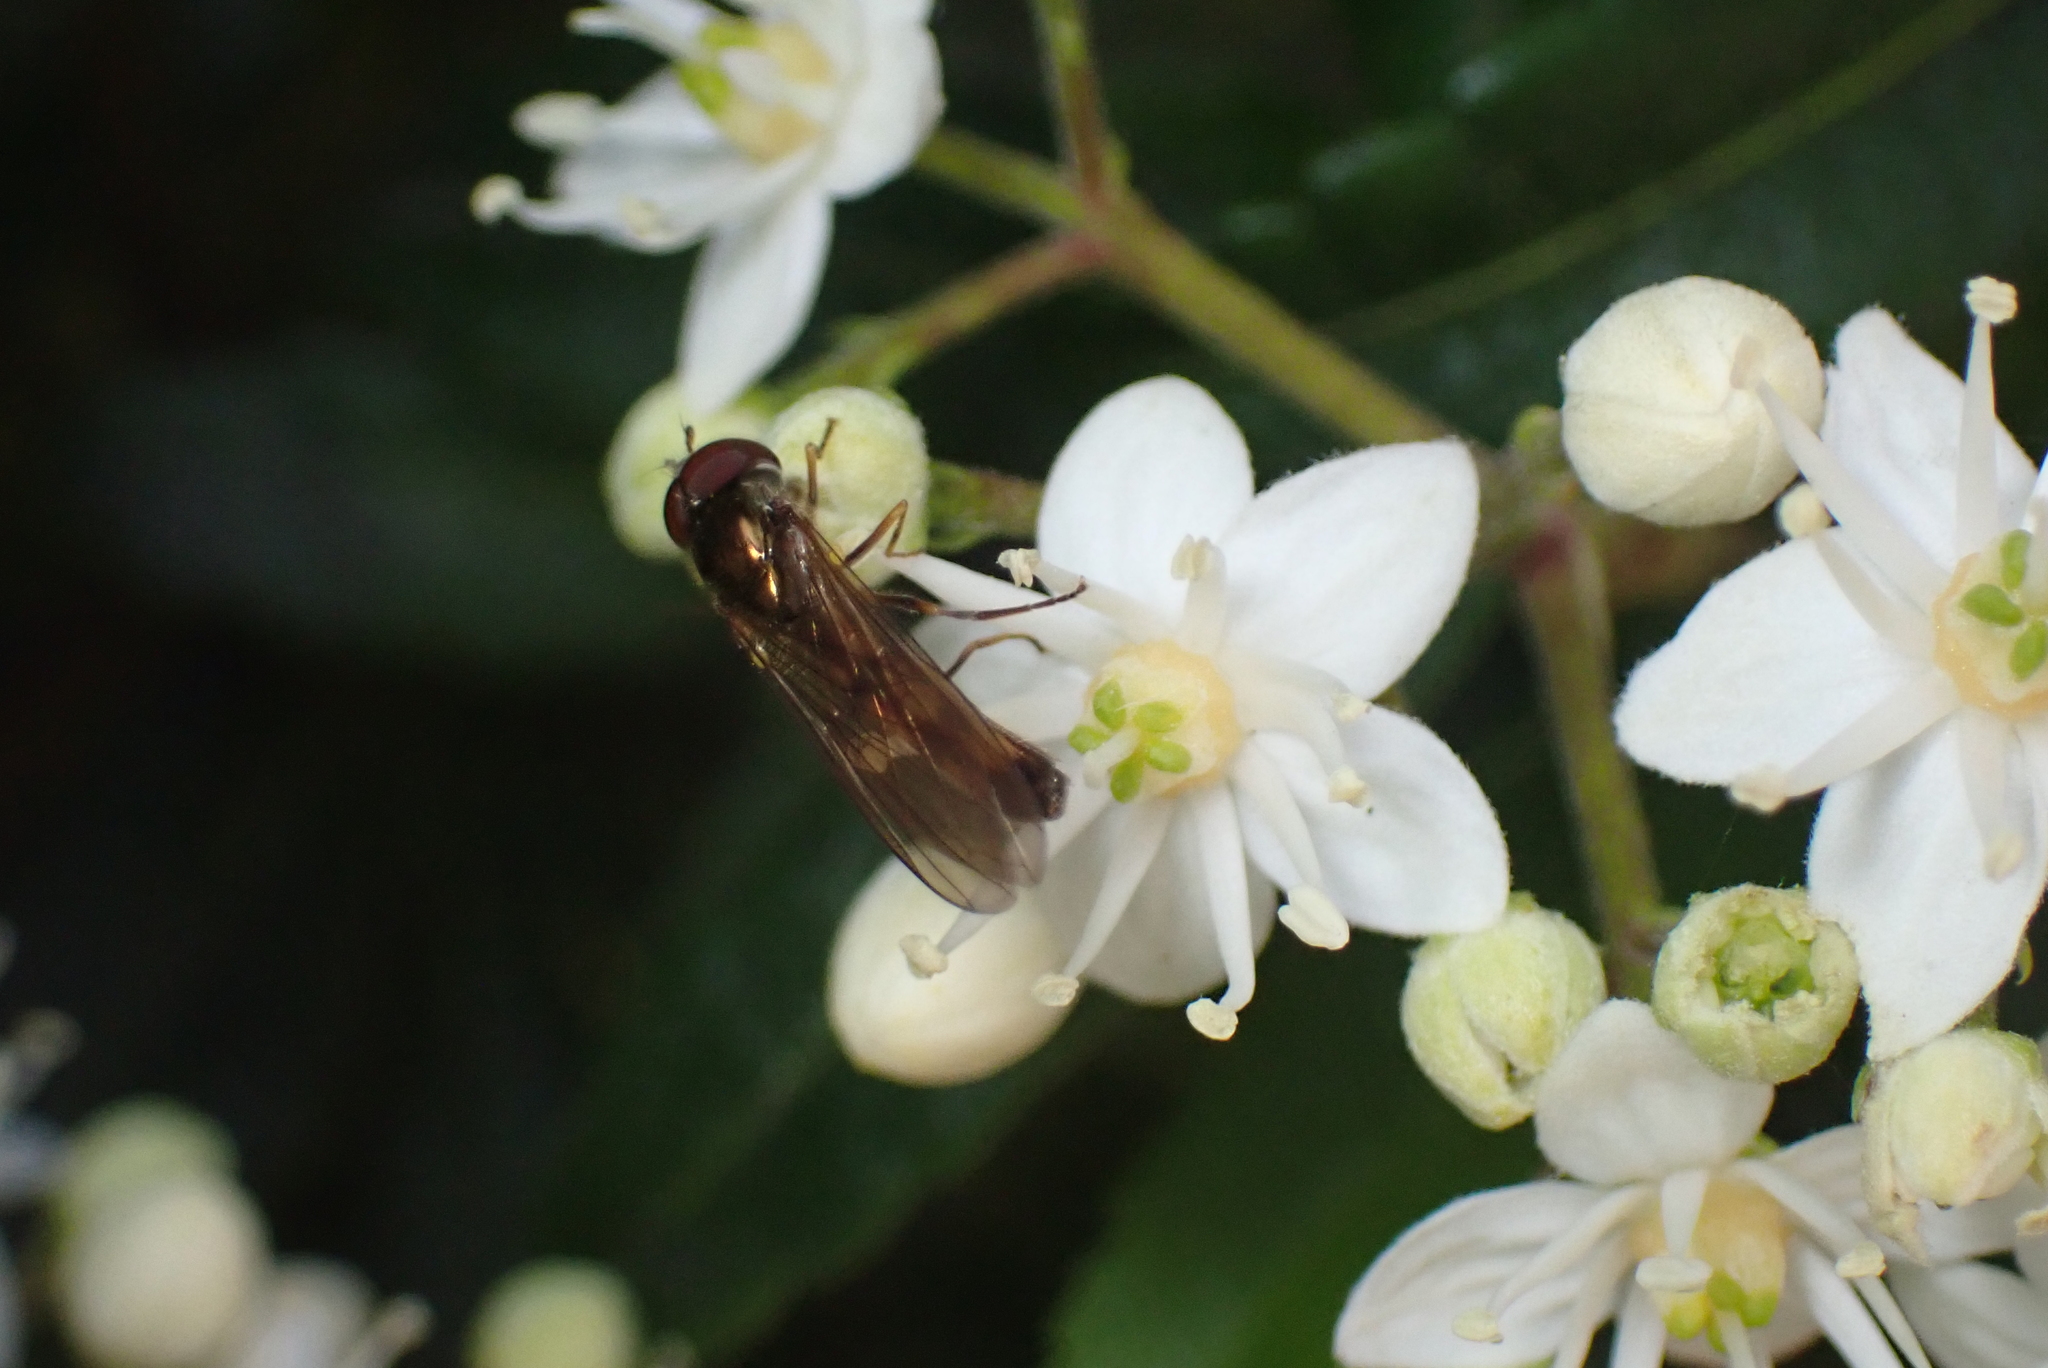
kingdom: Animalia
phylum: Arthropoda
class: Insecta
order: Diptera
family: Syrphidae
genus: Melanostoma
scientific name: Melanostoma scalare
